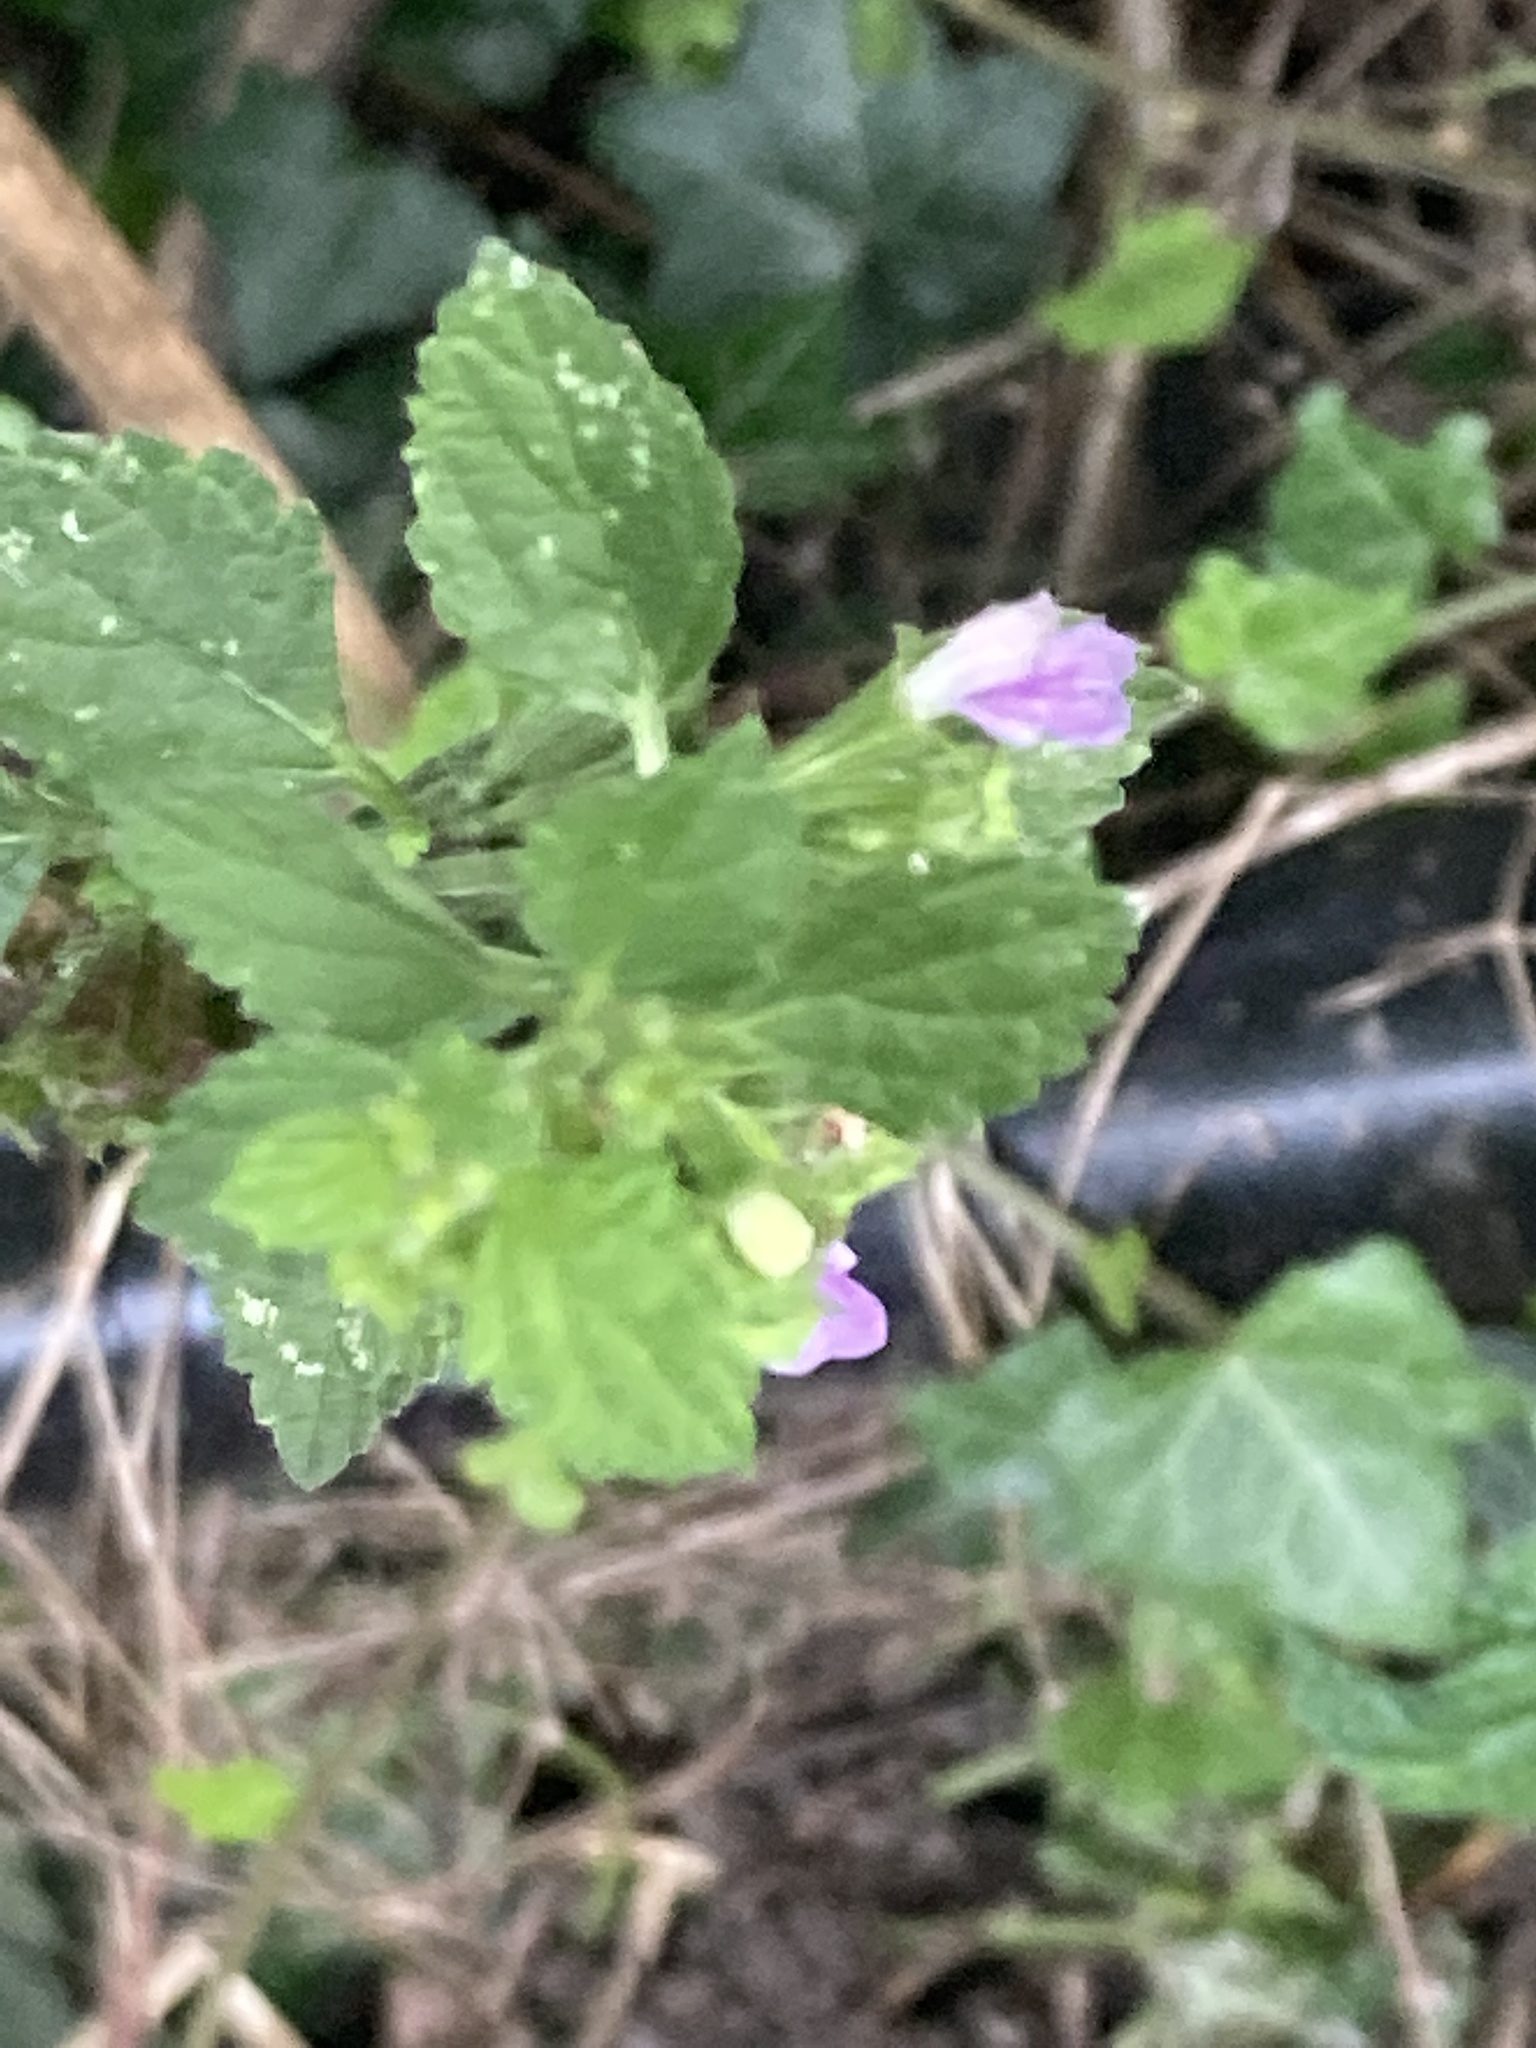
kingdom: Plantae
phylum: Tracheophyta
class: Magnoliopsida
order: Lamiales
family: Lamiaceae
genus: Ballota
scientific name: Ballota nigra
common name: Black horehound
